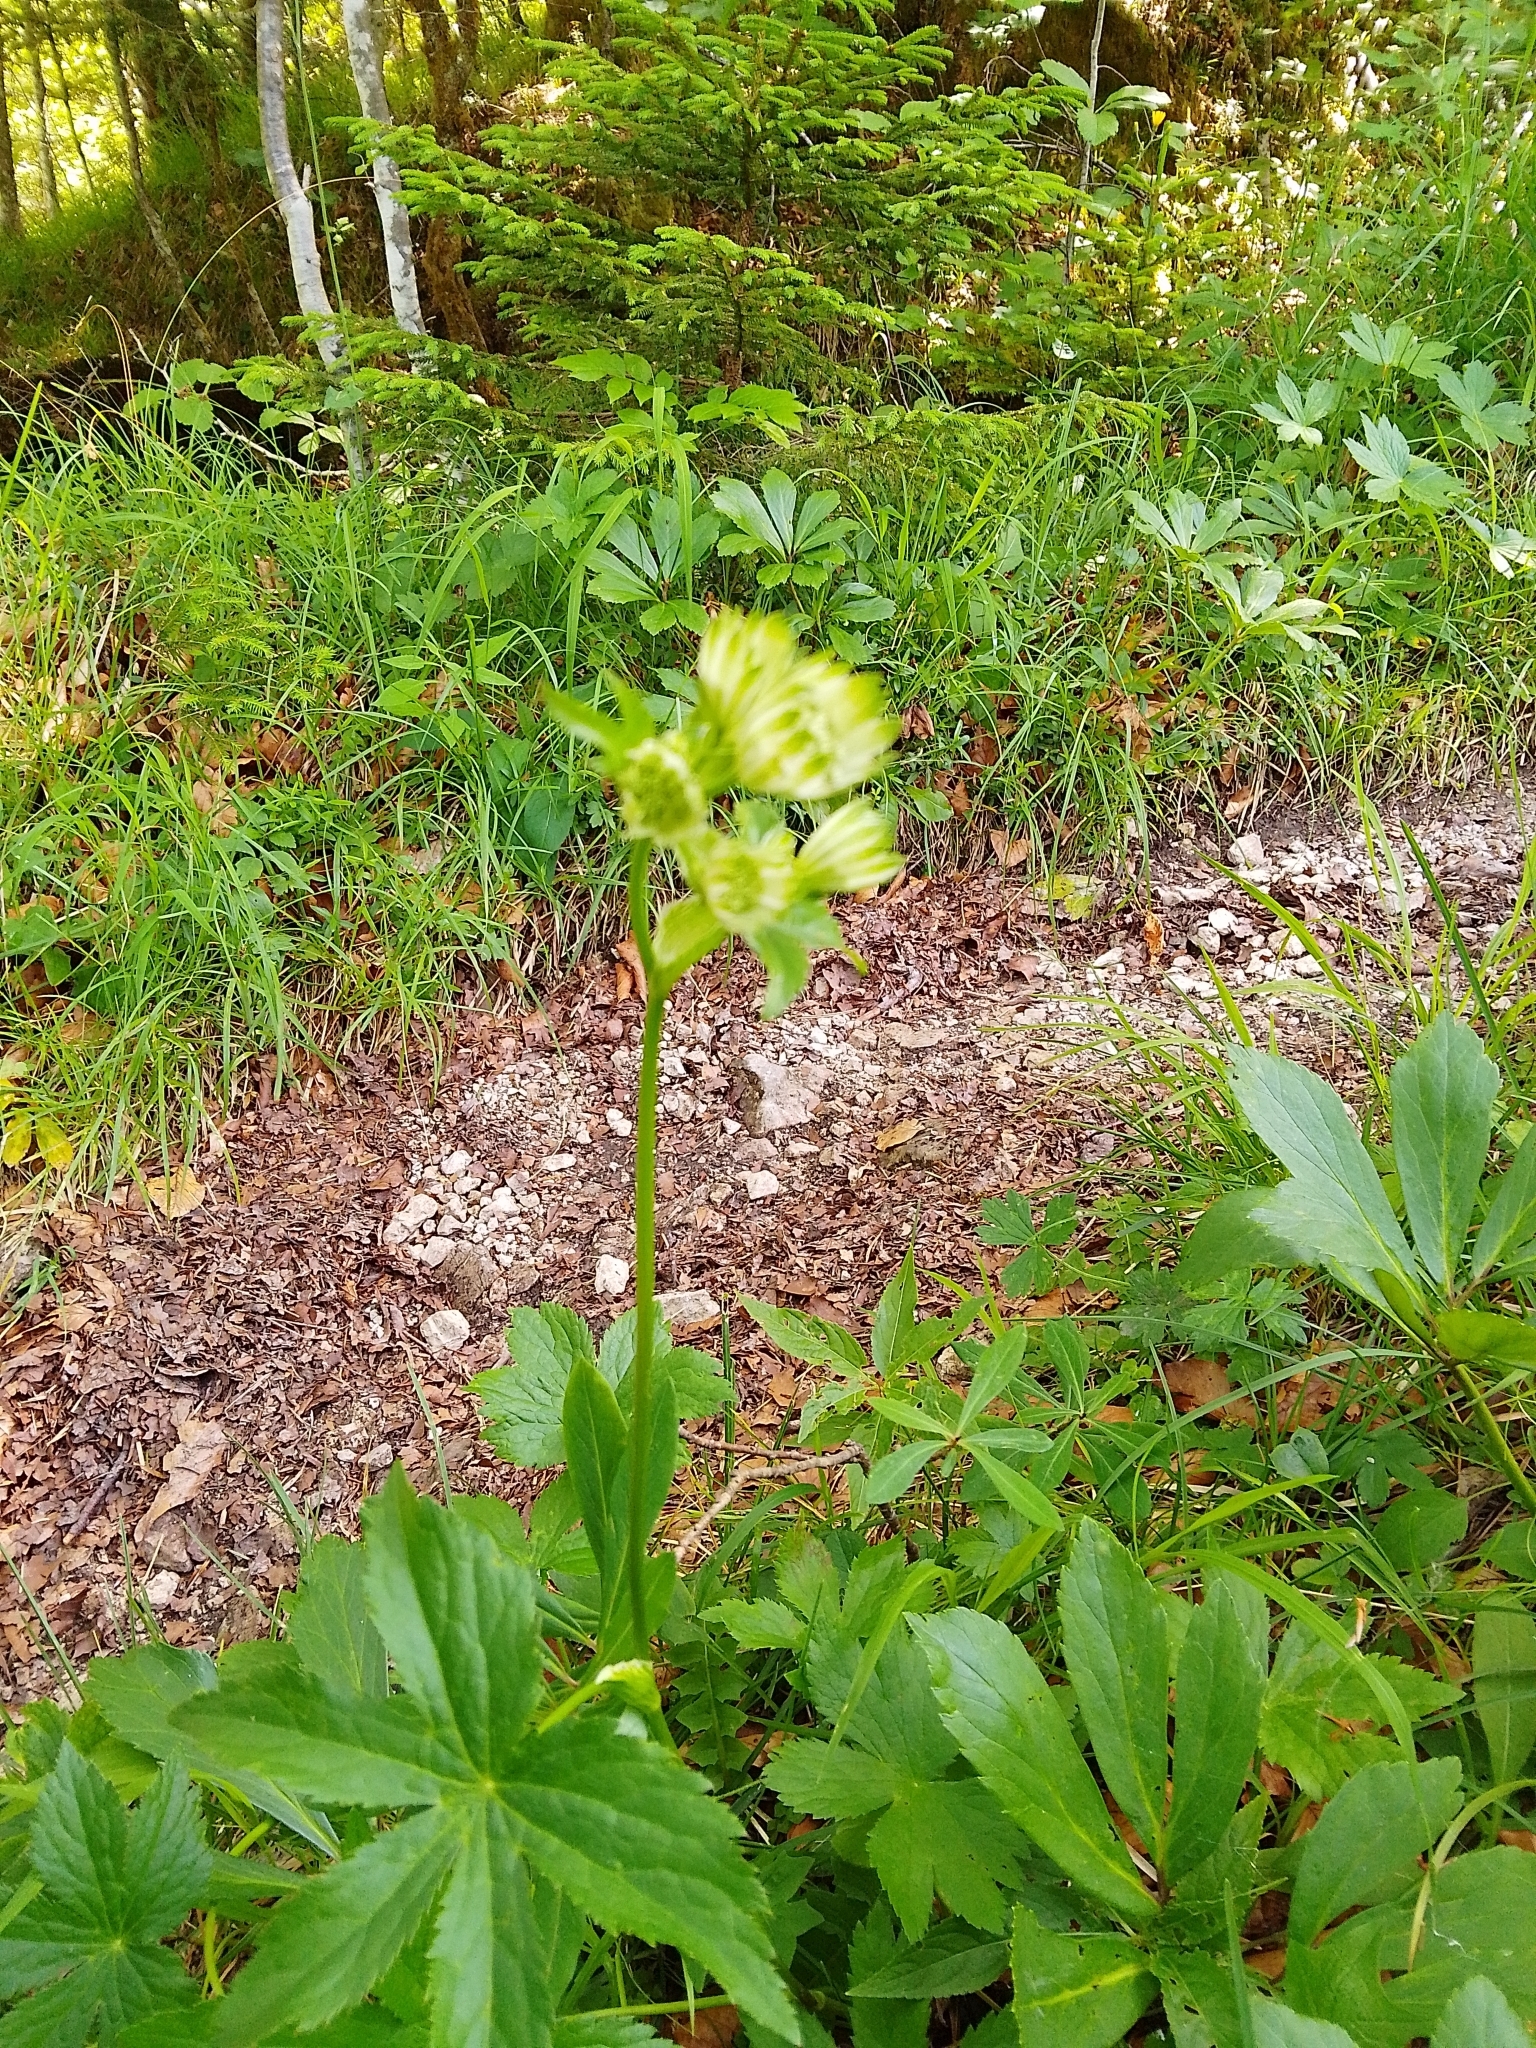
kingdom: Plantae
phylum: Tracheophyta
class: Magnoliopsida
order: Apiales
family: Apiaceae
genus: Astrantia
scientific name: Astrantia major
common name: Greater masterwort
